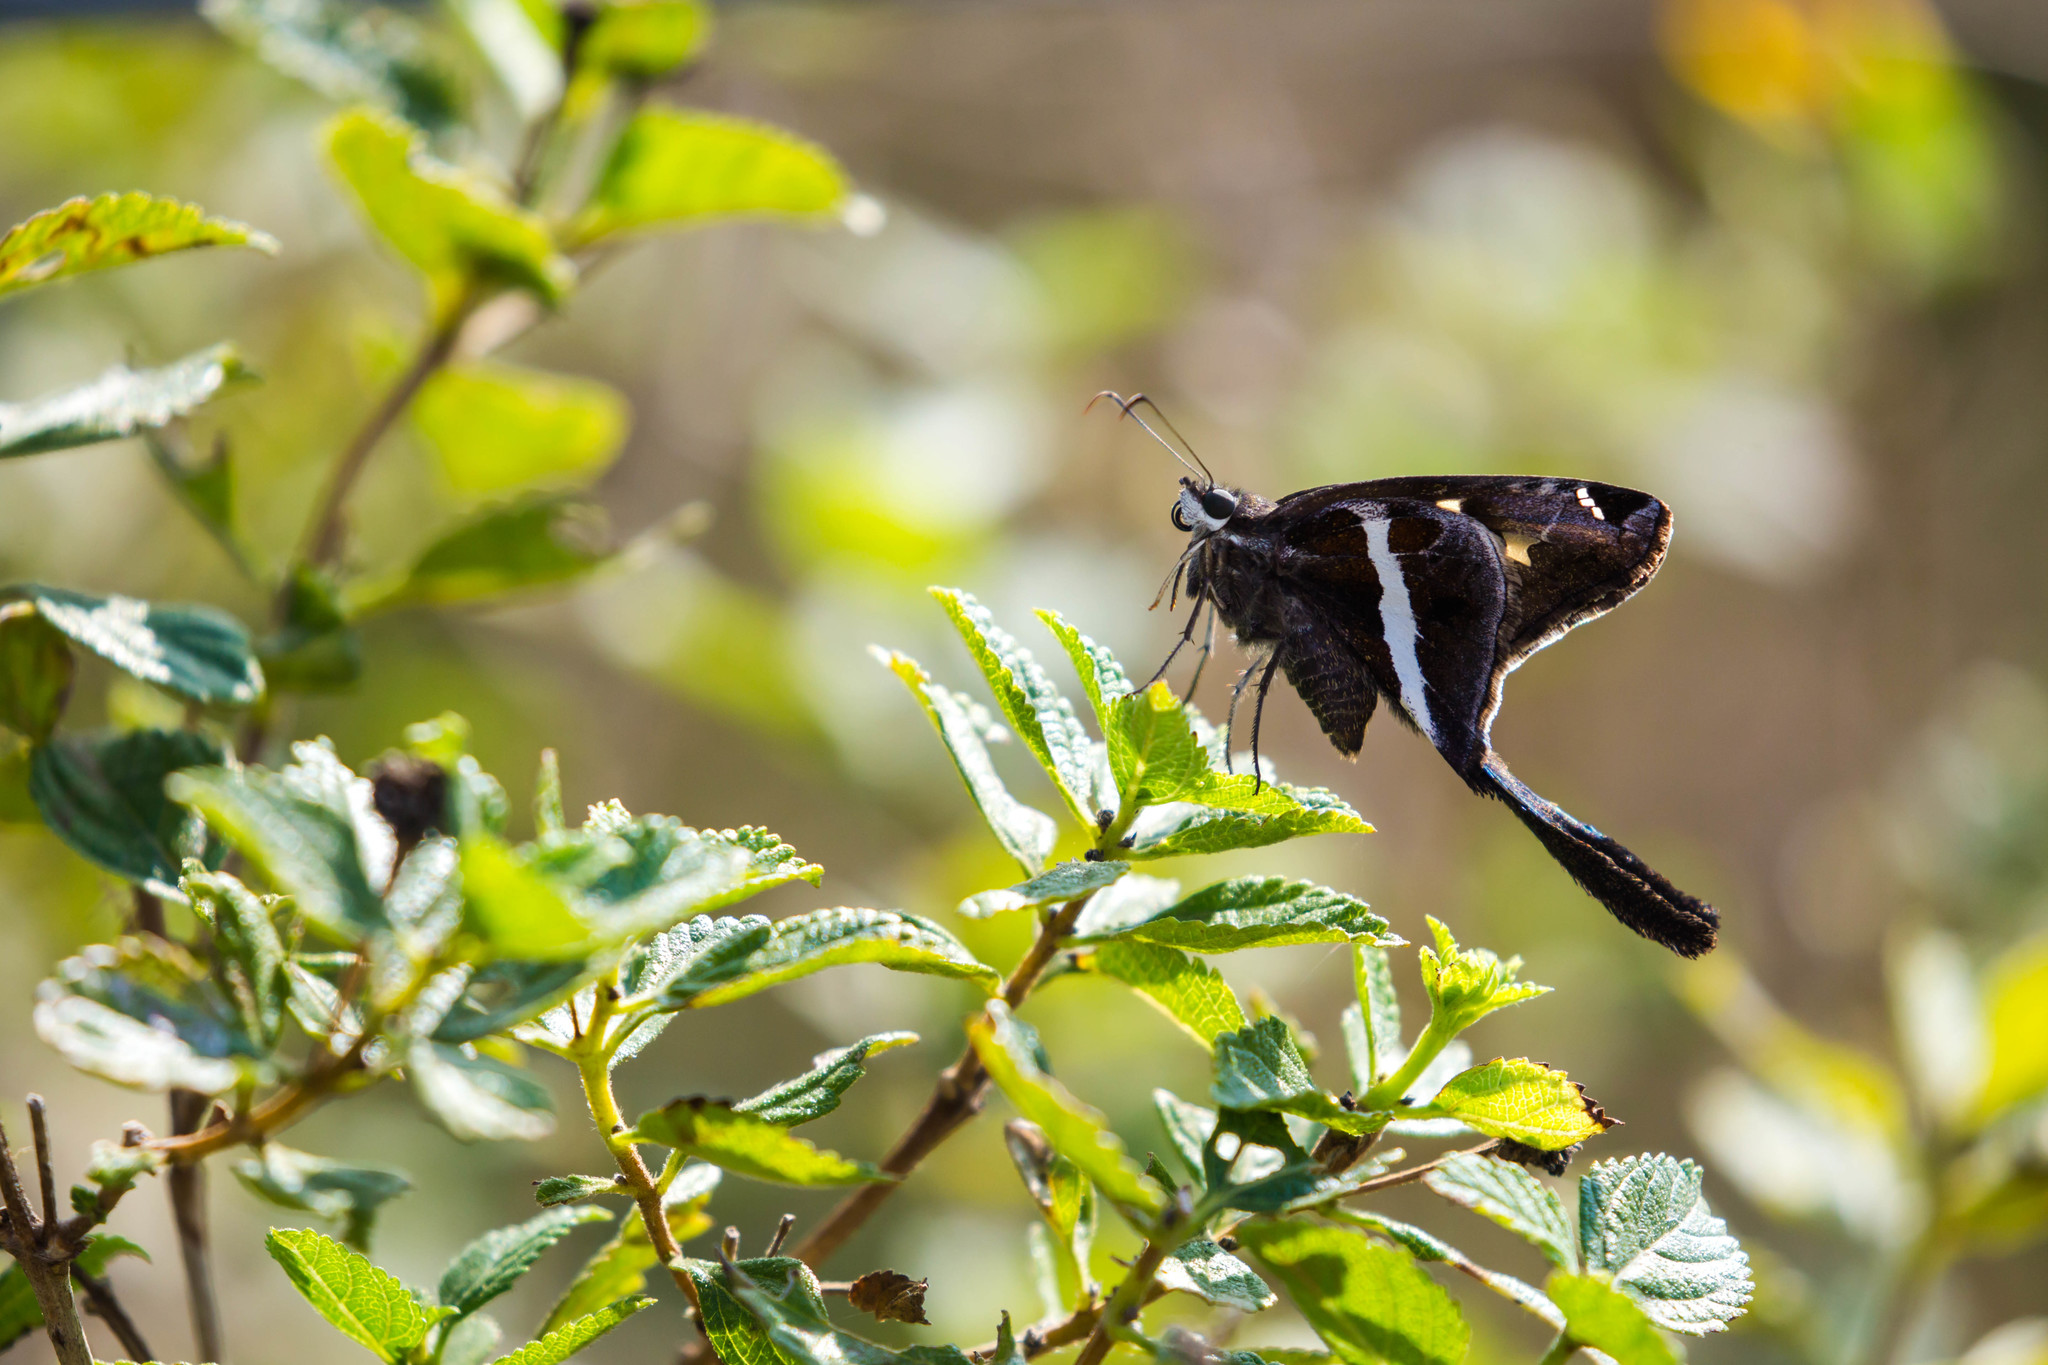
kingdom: Animalia
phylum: Arthropoda
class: Insecta
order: Lepidoptera
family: Hesperiidae
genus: Chioides
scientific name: Chioides catillus
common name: Silverbanded skipper
